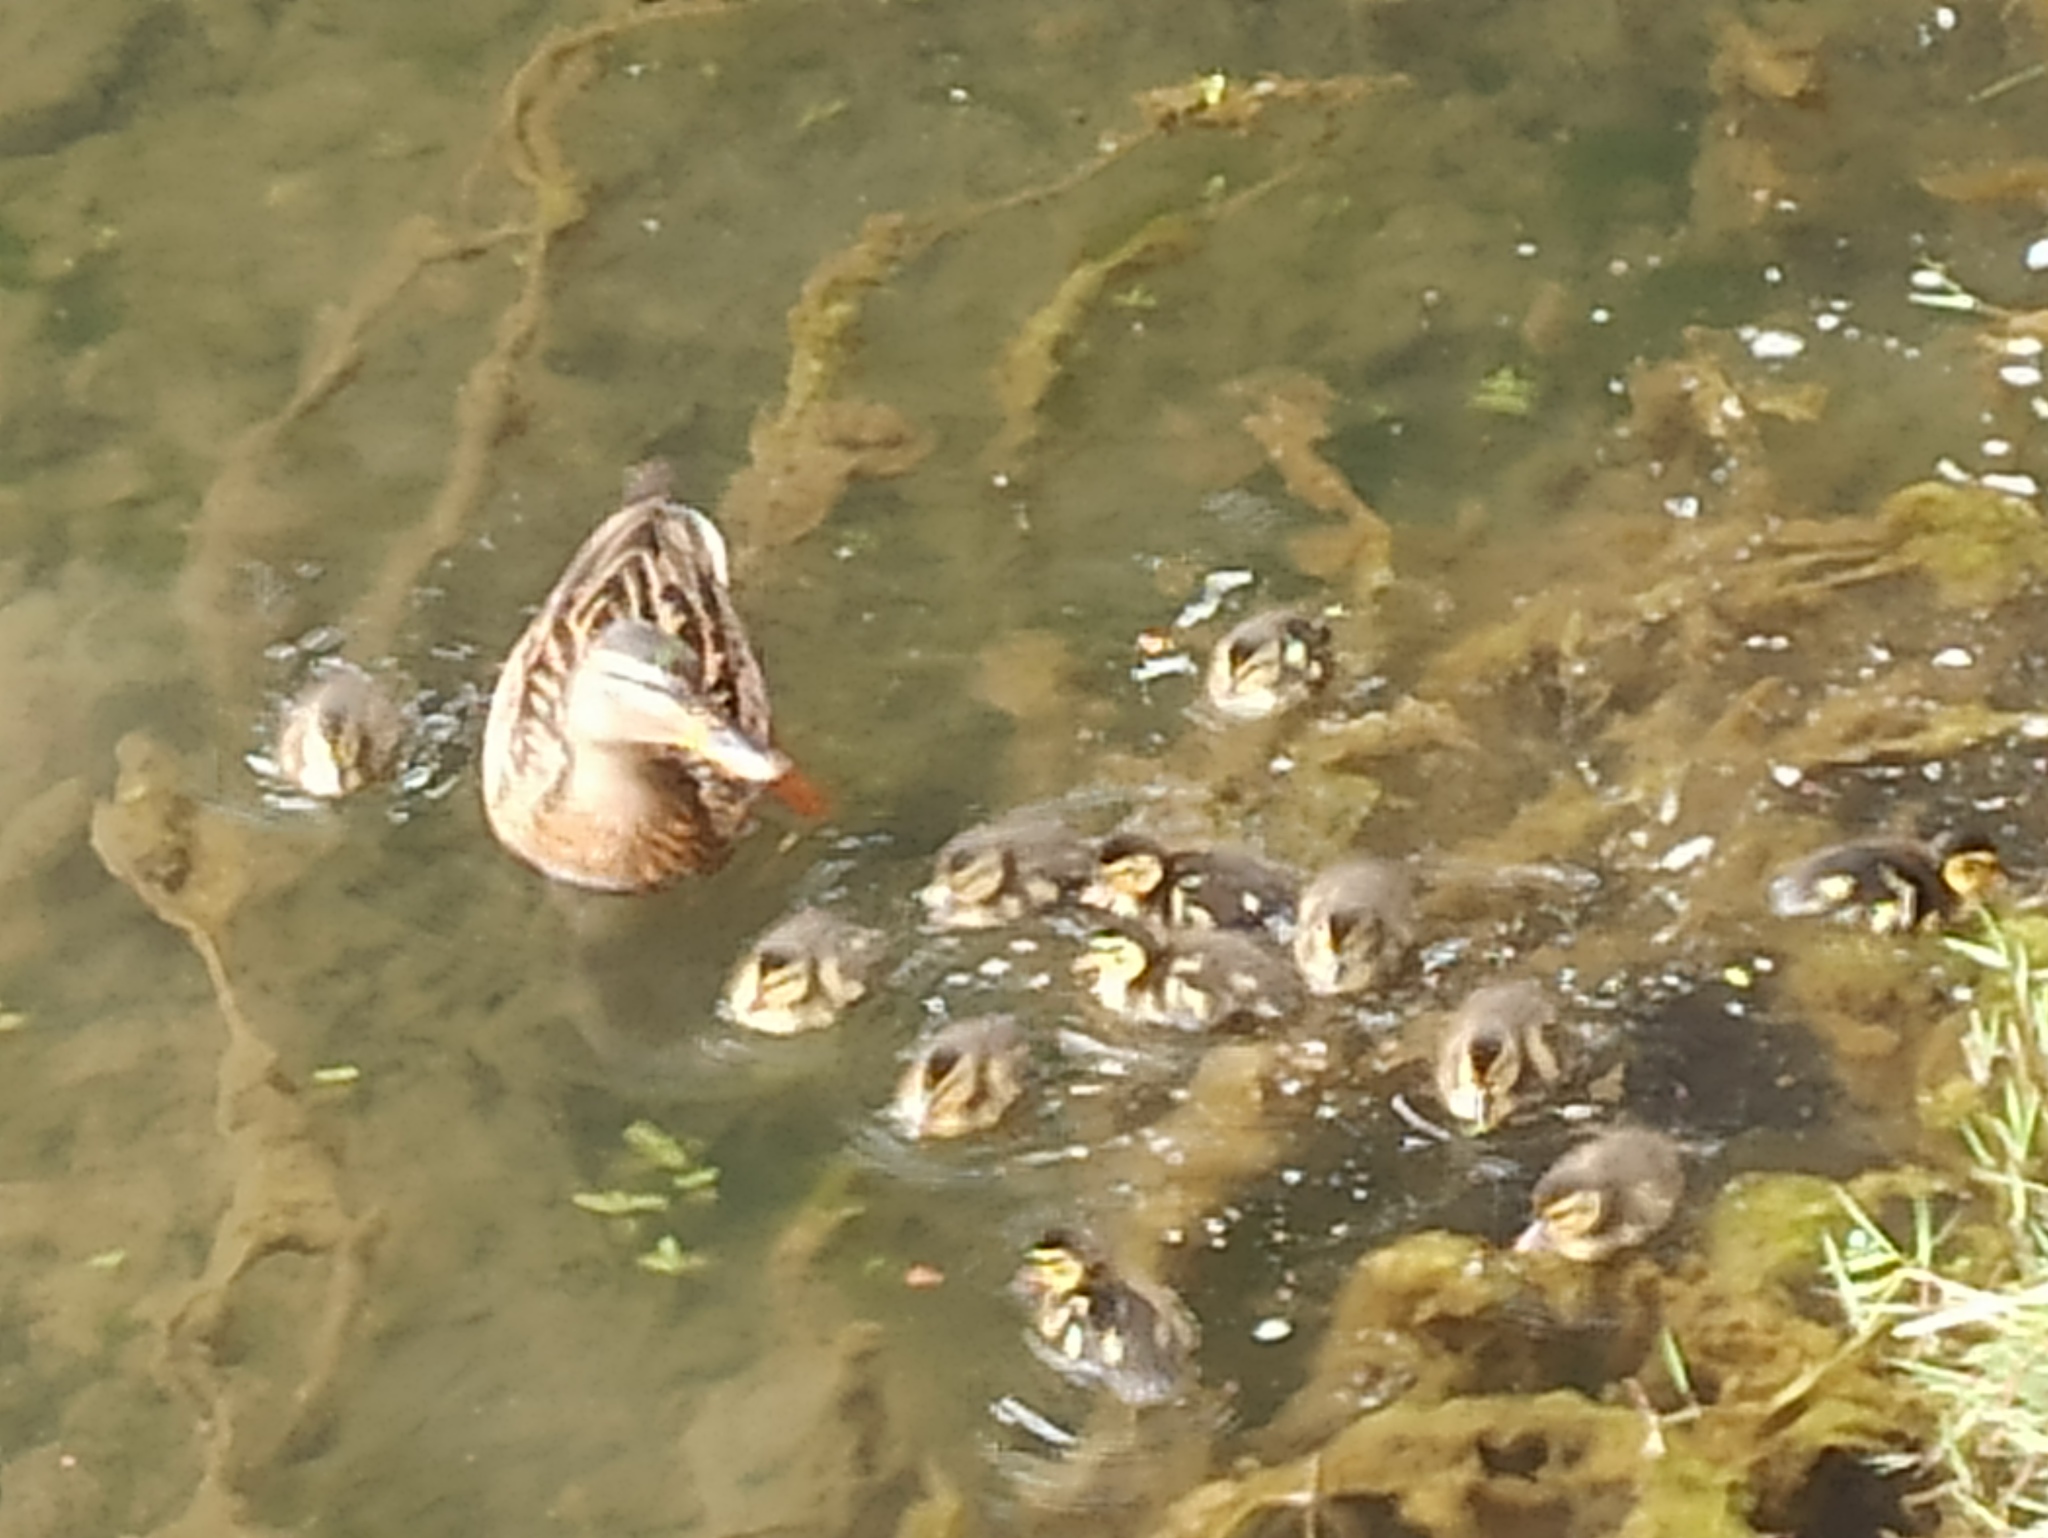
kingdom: Animalia
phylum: Chordata
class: Aves
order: Anseriformes
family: Anatidae
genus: Anas
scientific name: Anas platyrhynchos
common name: Mallard
